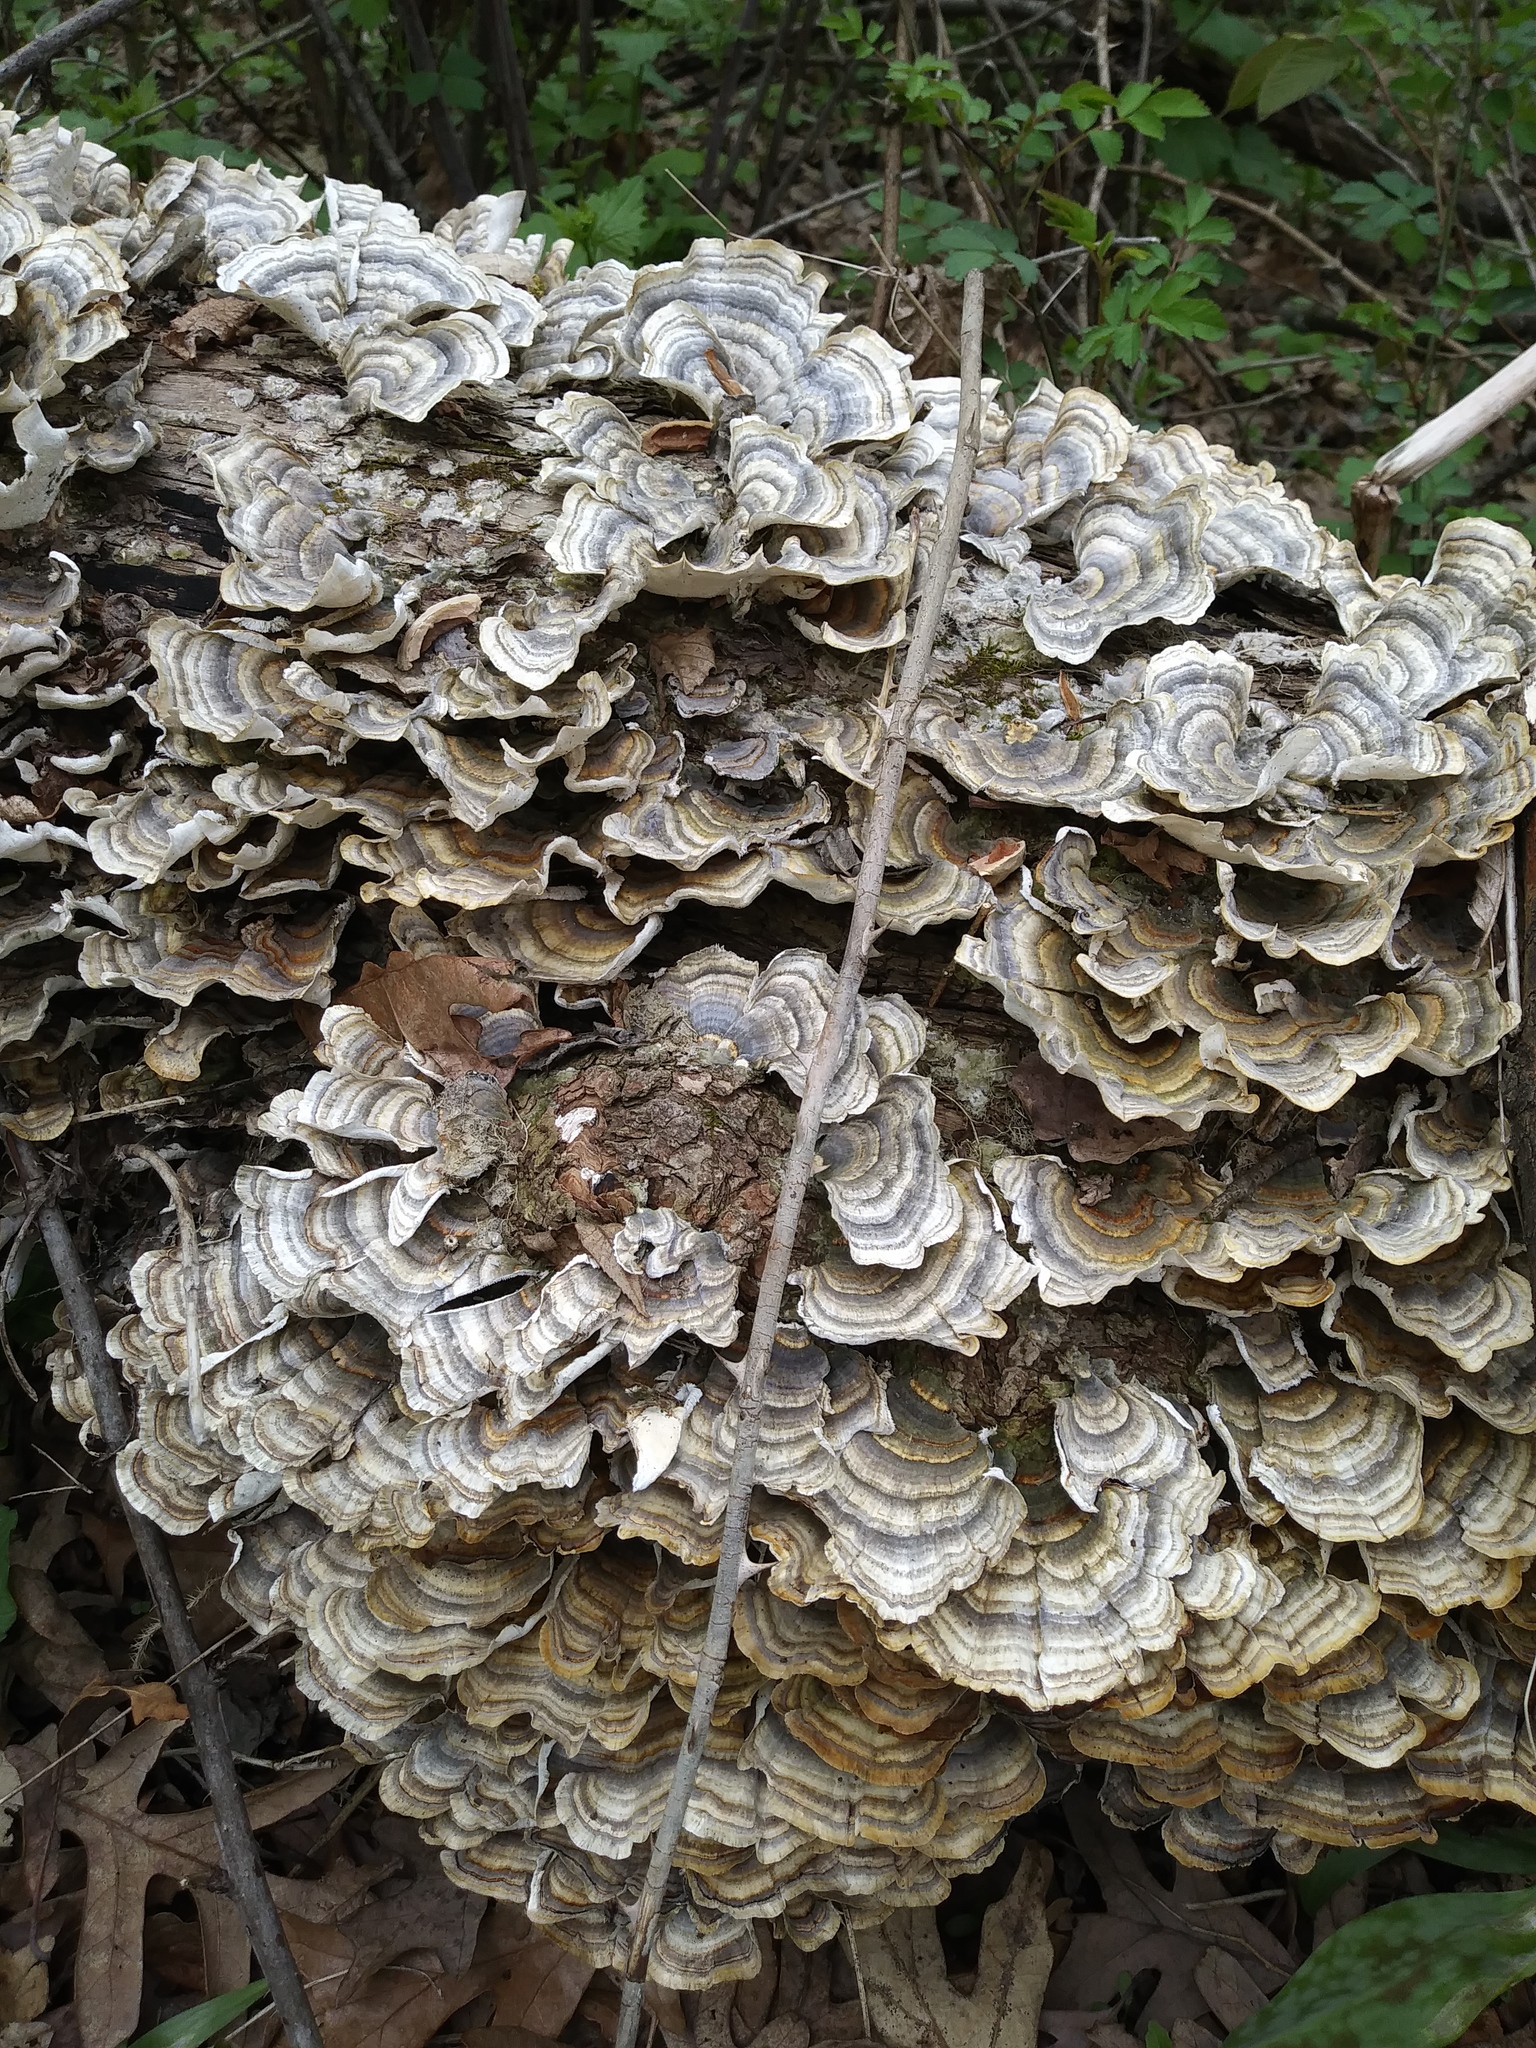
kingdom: Fungi
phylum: Basidiomycota
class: Agaricomycetes
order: Polyporales
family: Polyporaceae
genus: Trametes
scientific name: Trametes versicolor
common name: Turkeytail
